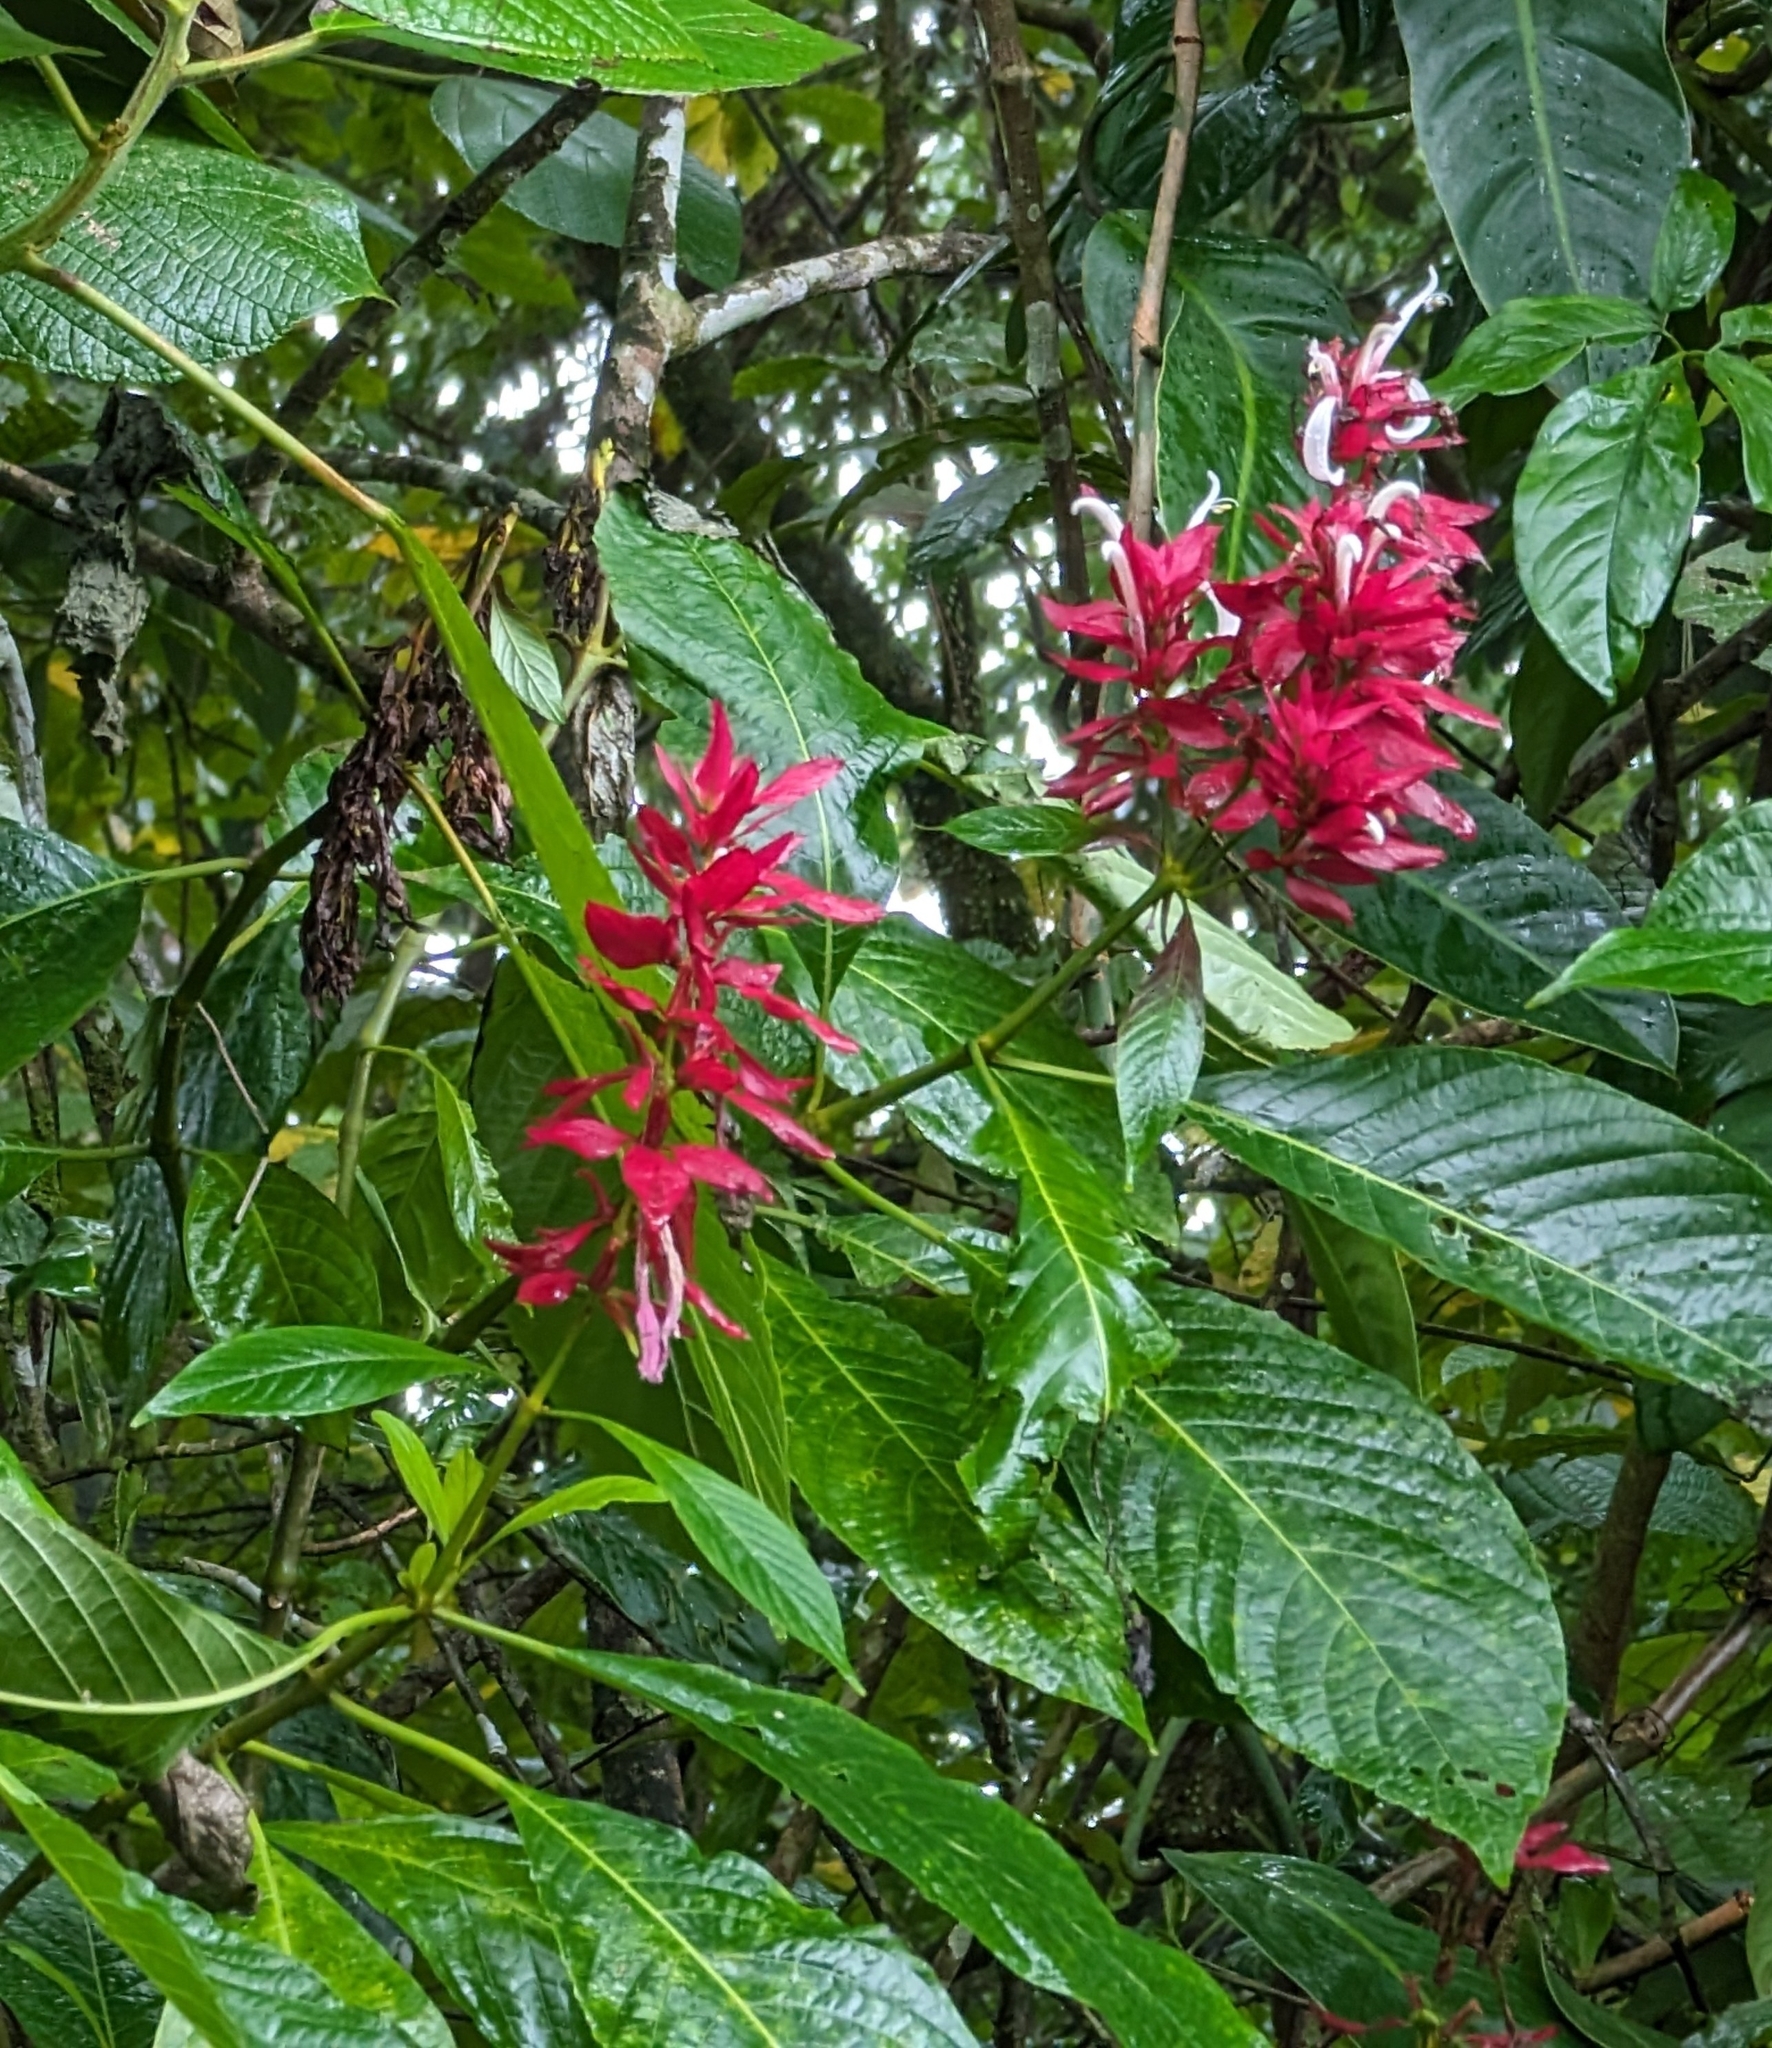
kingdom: Plantae
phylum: Tracheophyta
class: Magnoliopsida
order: Lamiales
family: Acanthaceae
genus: Megaskepasma
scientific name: Megaskepasma erythrochlamys
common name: Brazilian red-cloak
